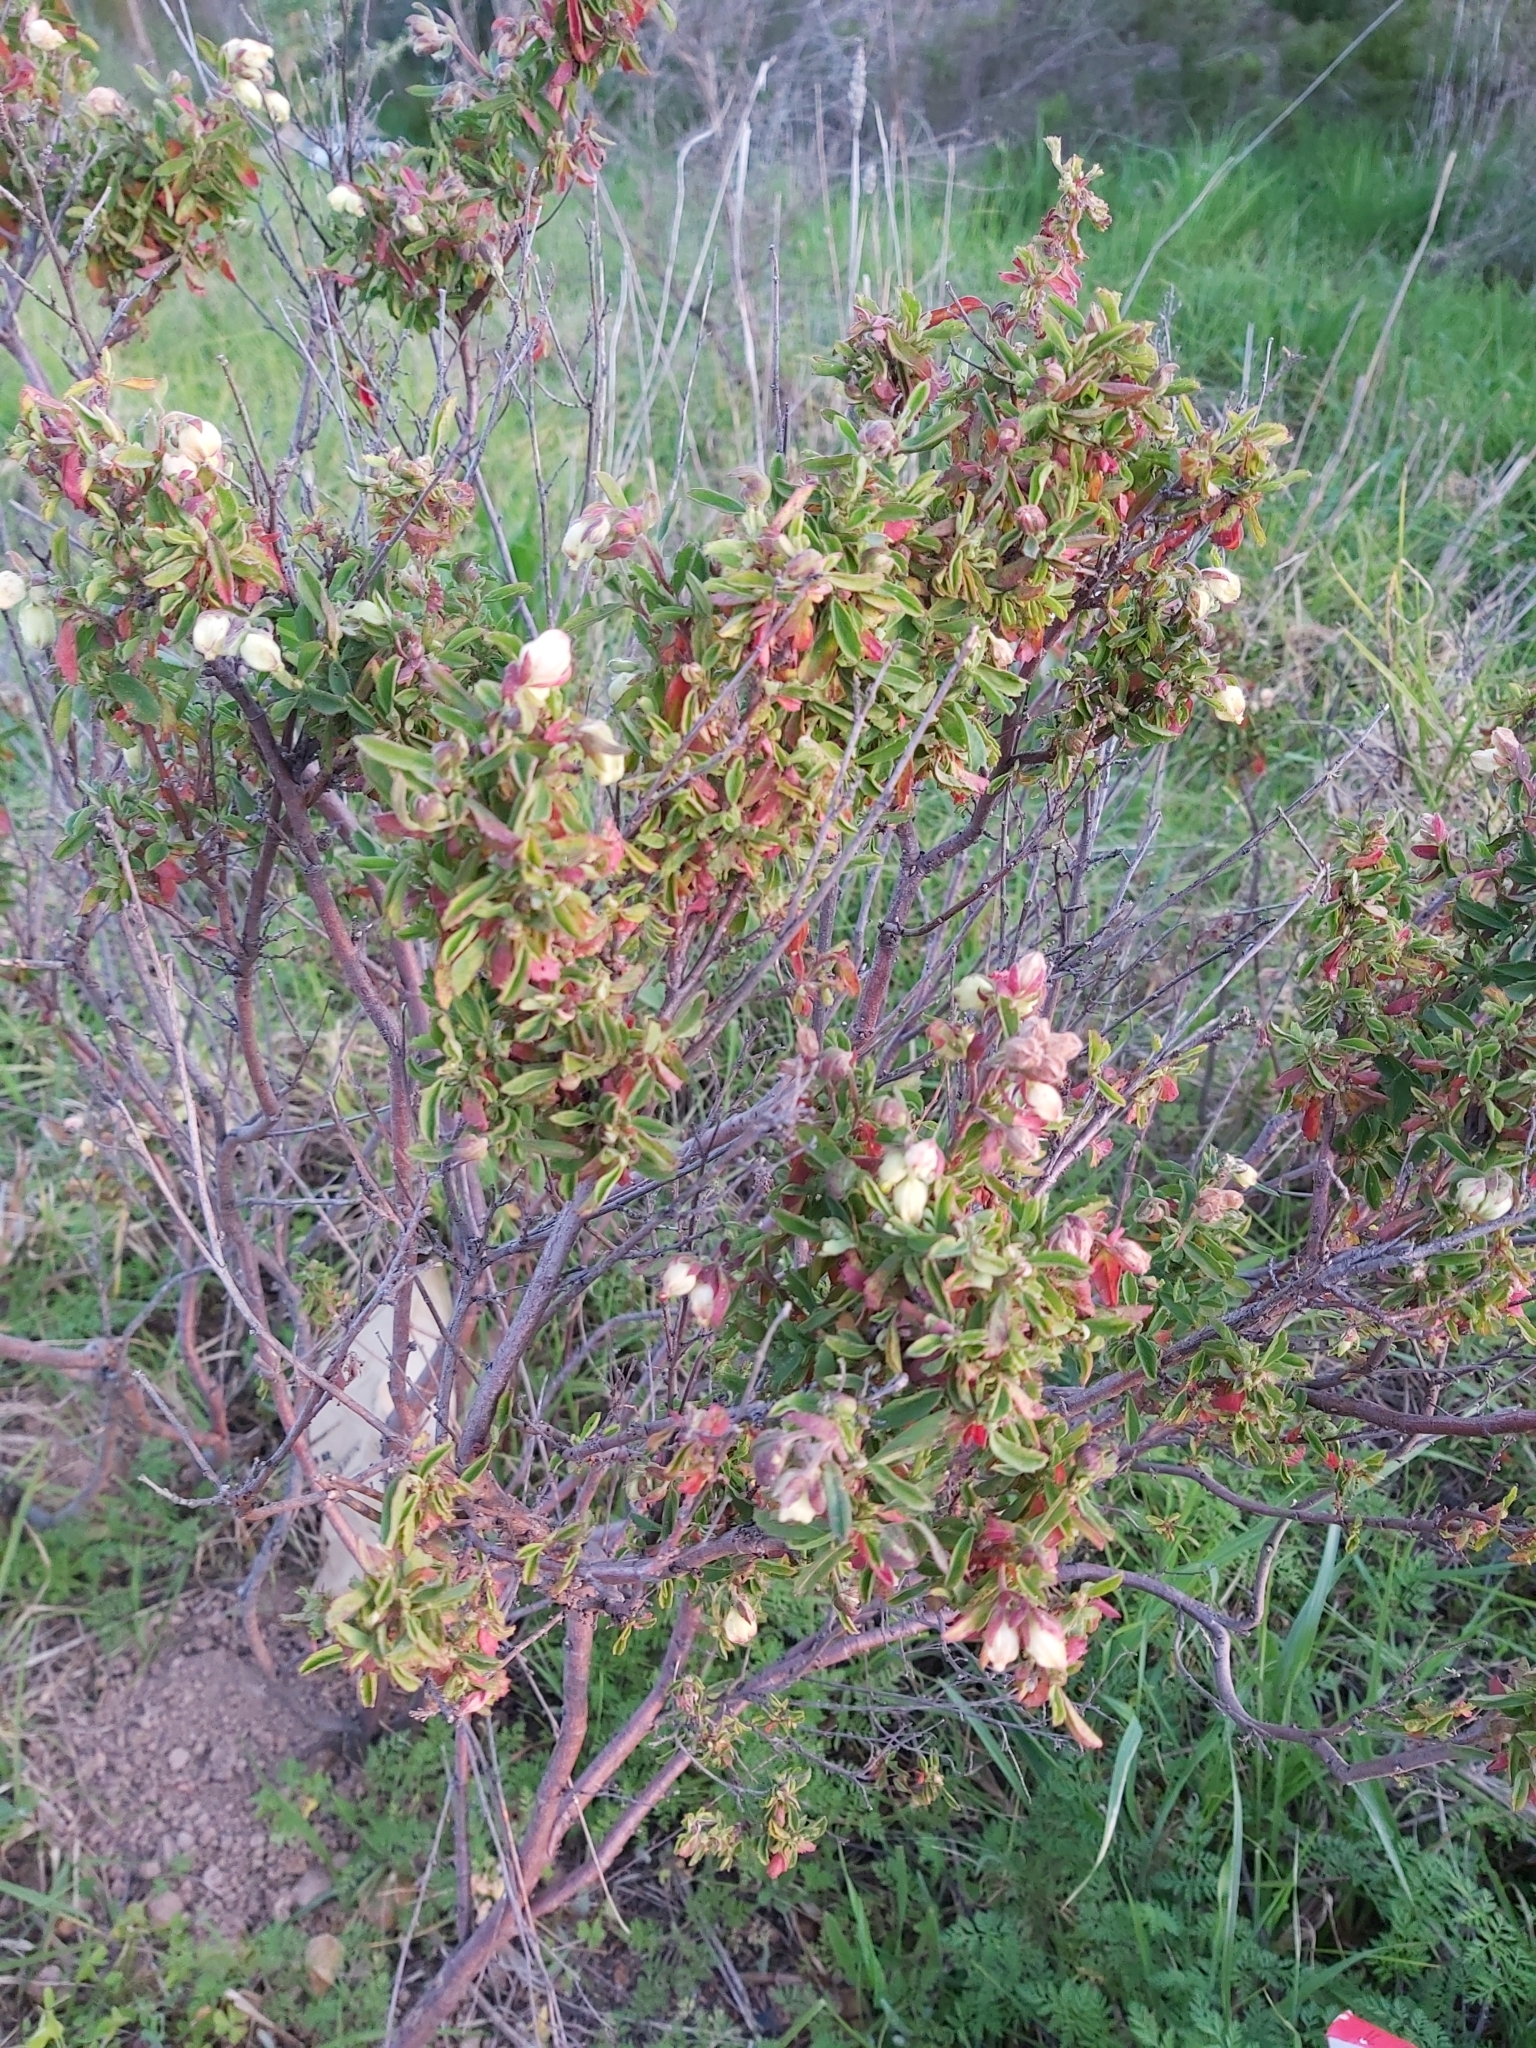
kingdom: Plantae
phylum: Tracheophyta
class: Magnoliopsida
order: Malvales
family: Malvaceae
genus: Hermannia
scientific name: Hermannia hyssopifolia
